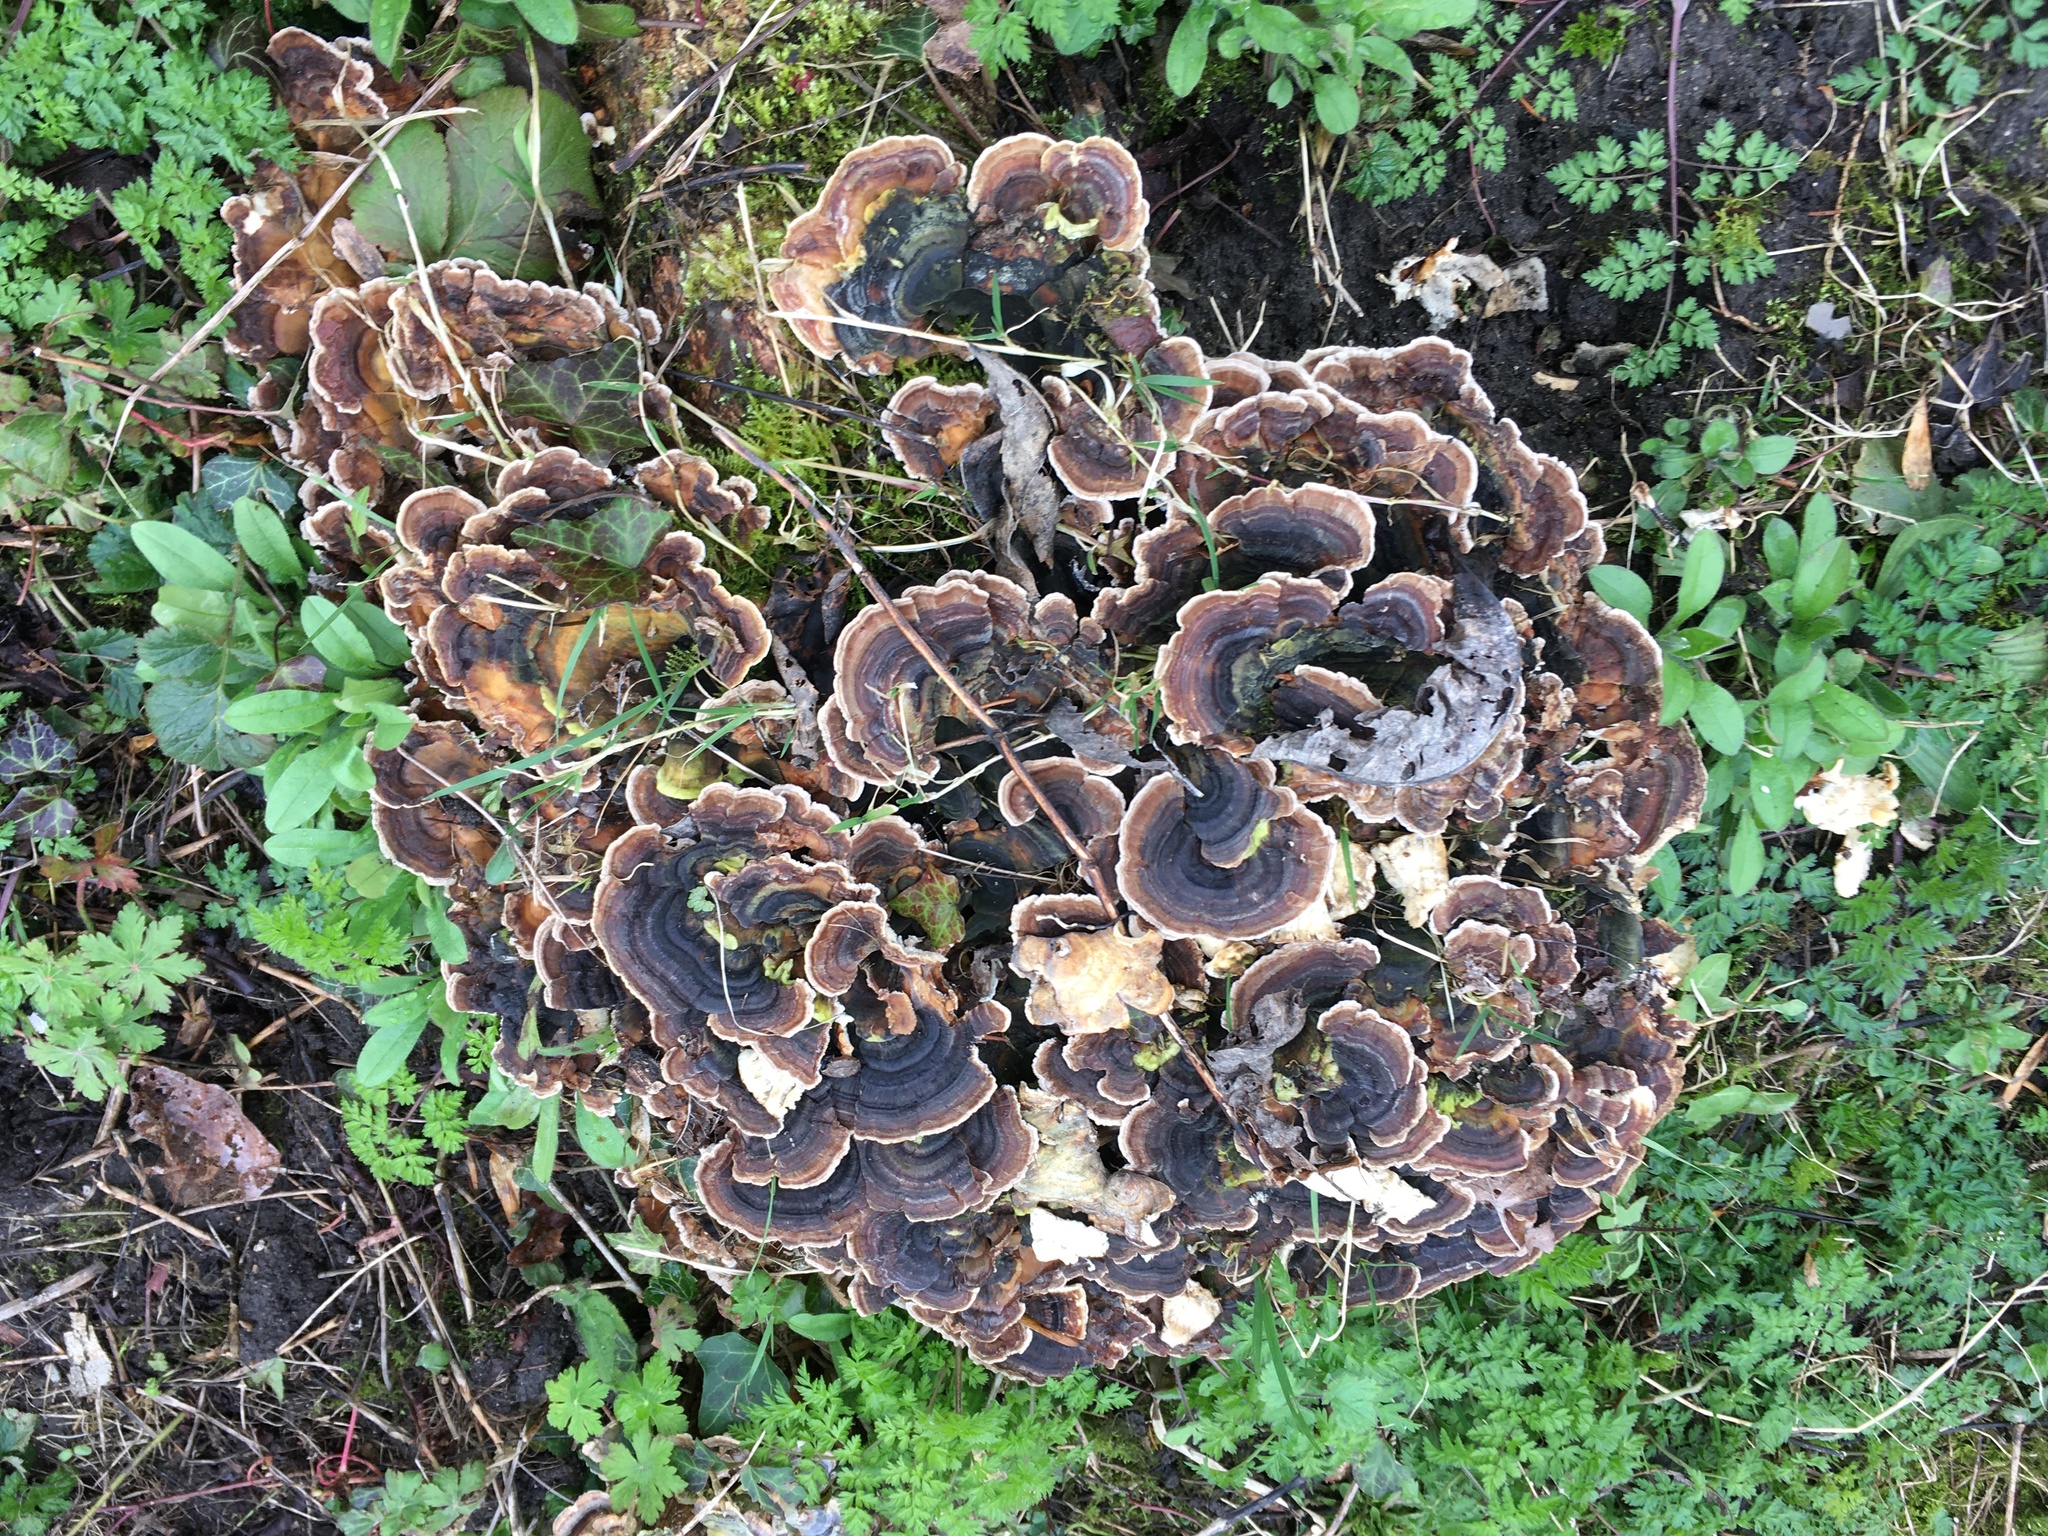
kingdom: Fungi
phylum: Basidiomycota
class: Agaricomycetes
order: Polyporales
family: Polyporaceae
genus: Trametes
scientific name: Trametes versicolor
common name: Turkeytail
